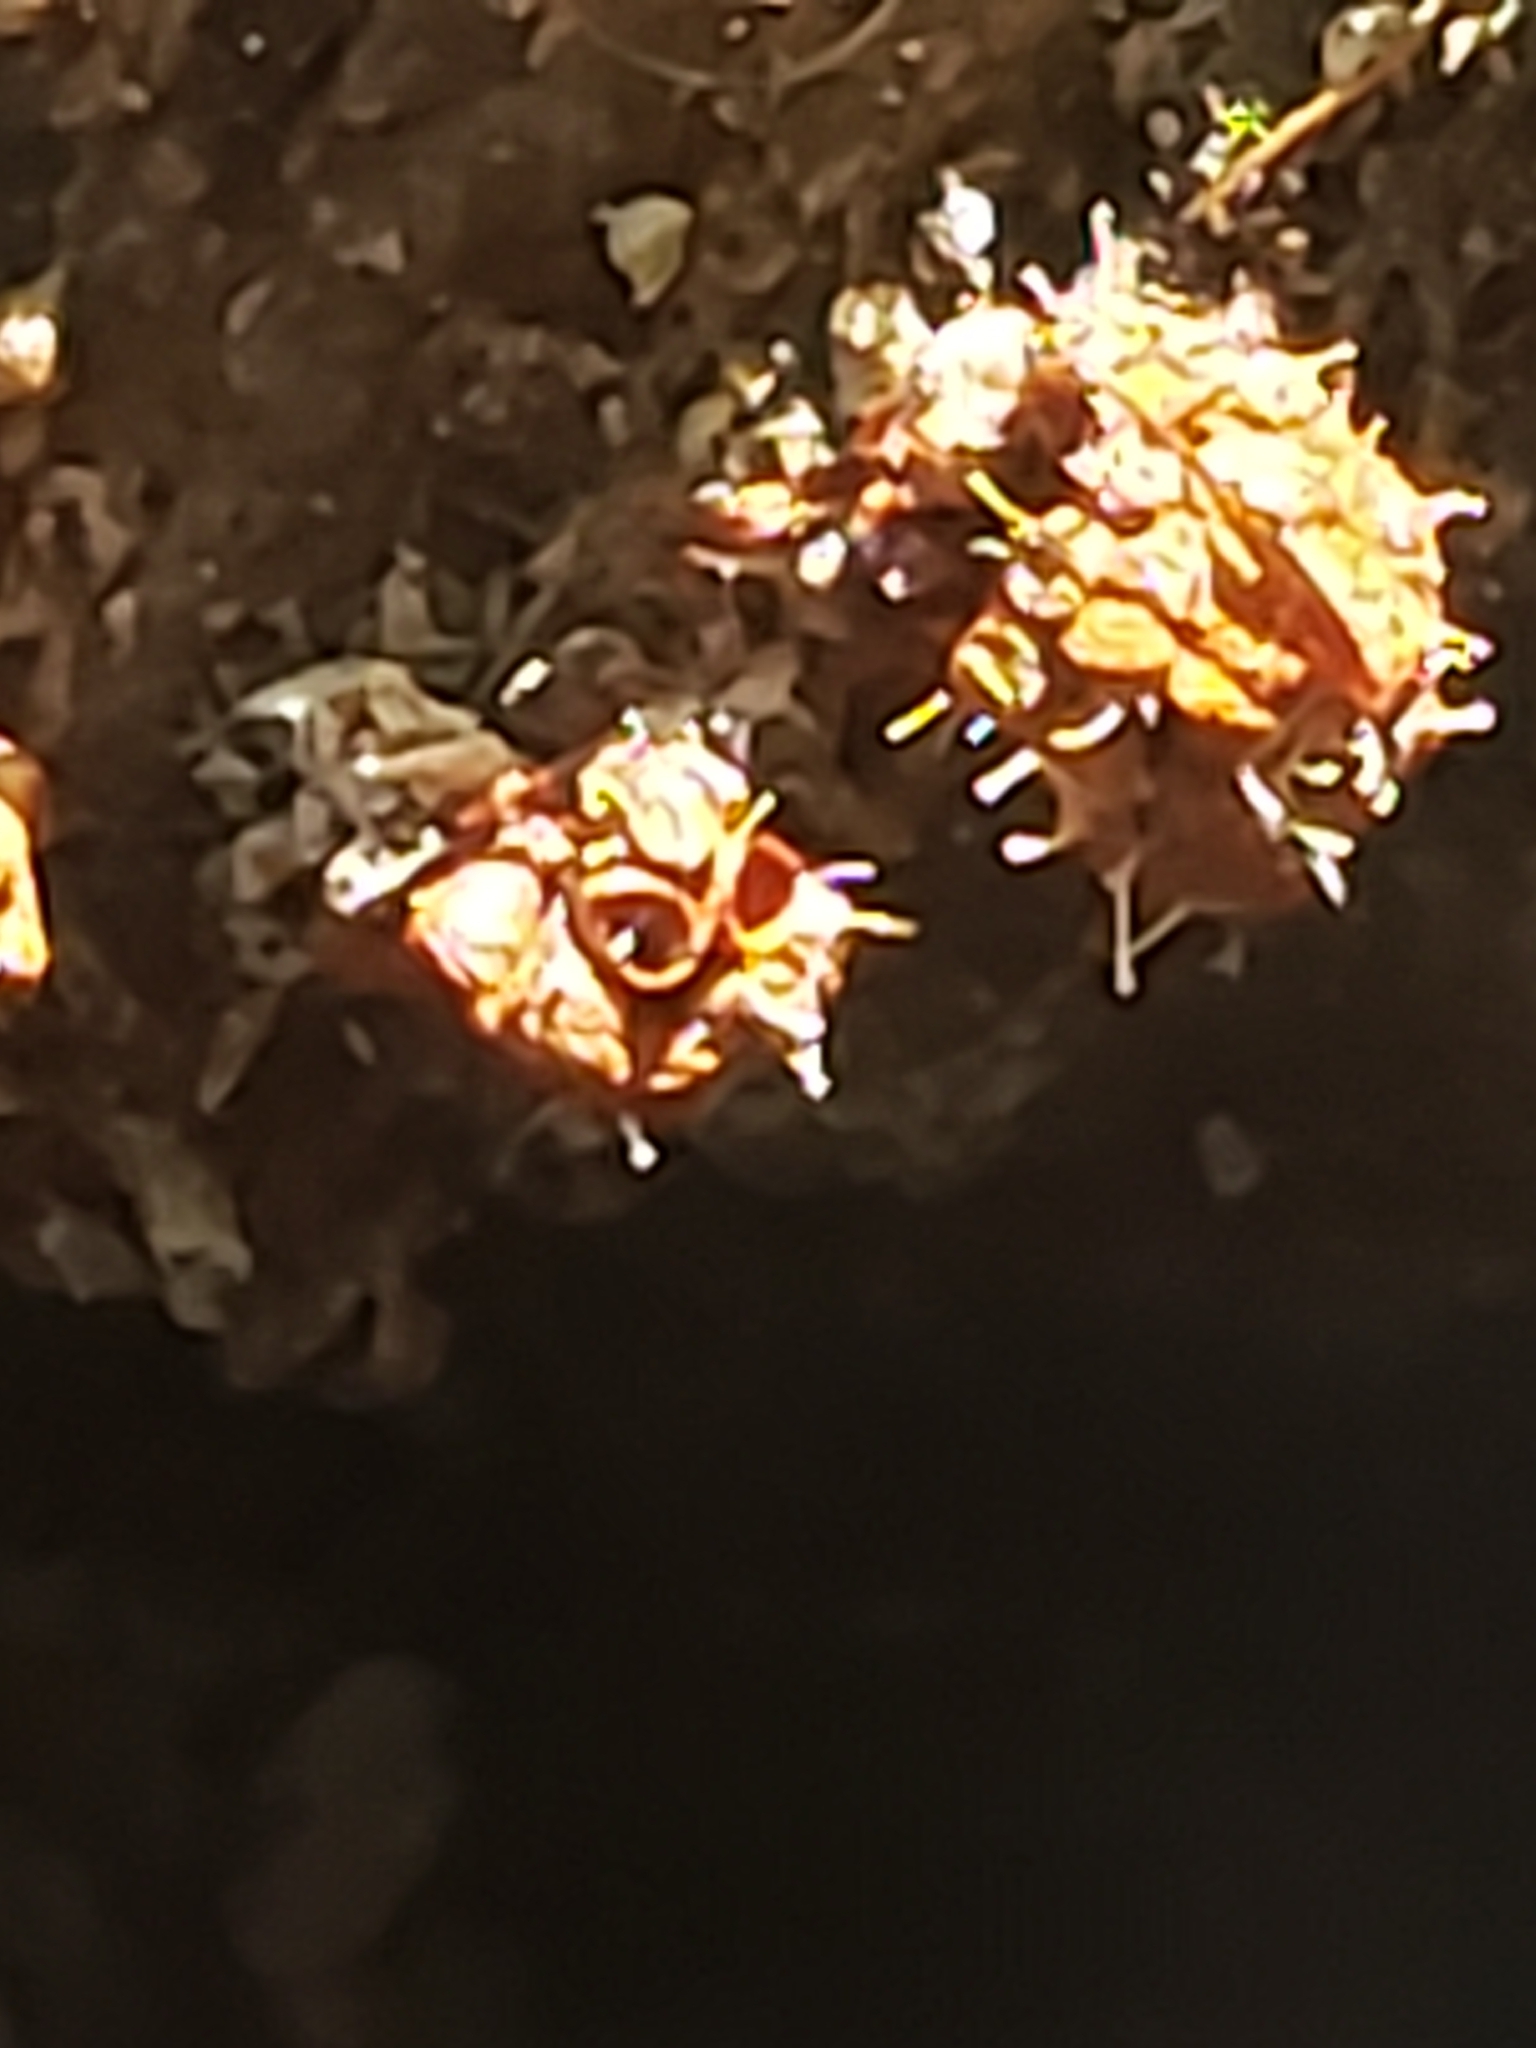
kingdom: Fungi
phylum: Ascomycota
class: Sordariomycetes
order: Hypocreales
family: Ophiocordycipitaceae
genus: Polycephalomyces
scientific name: Polycephalomyces tomentosus
